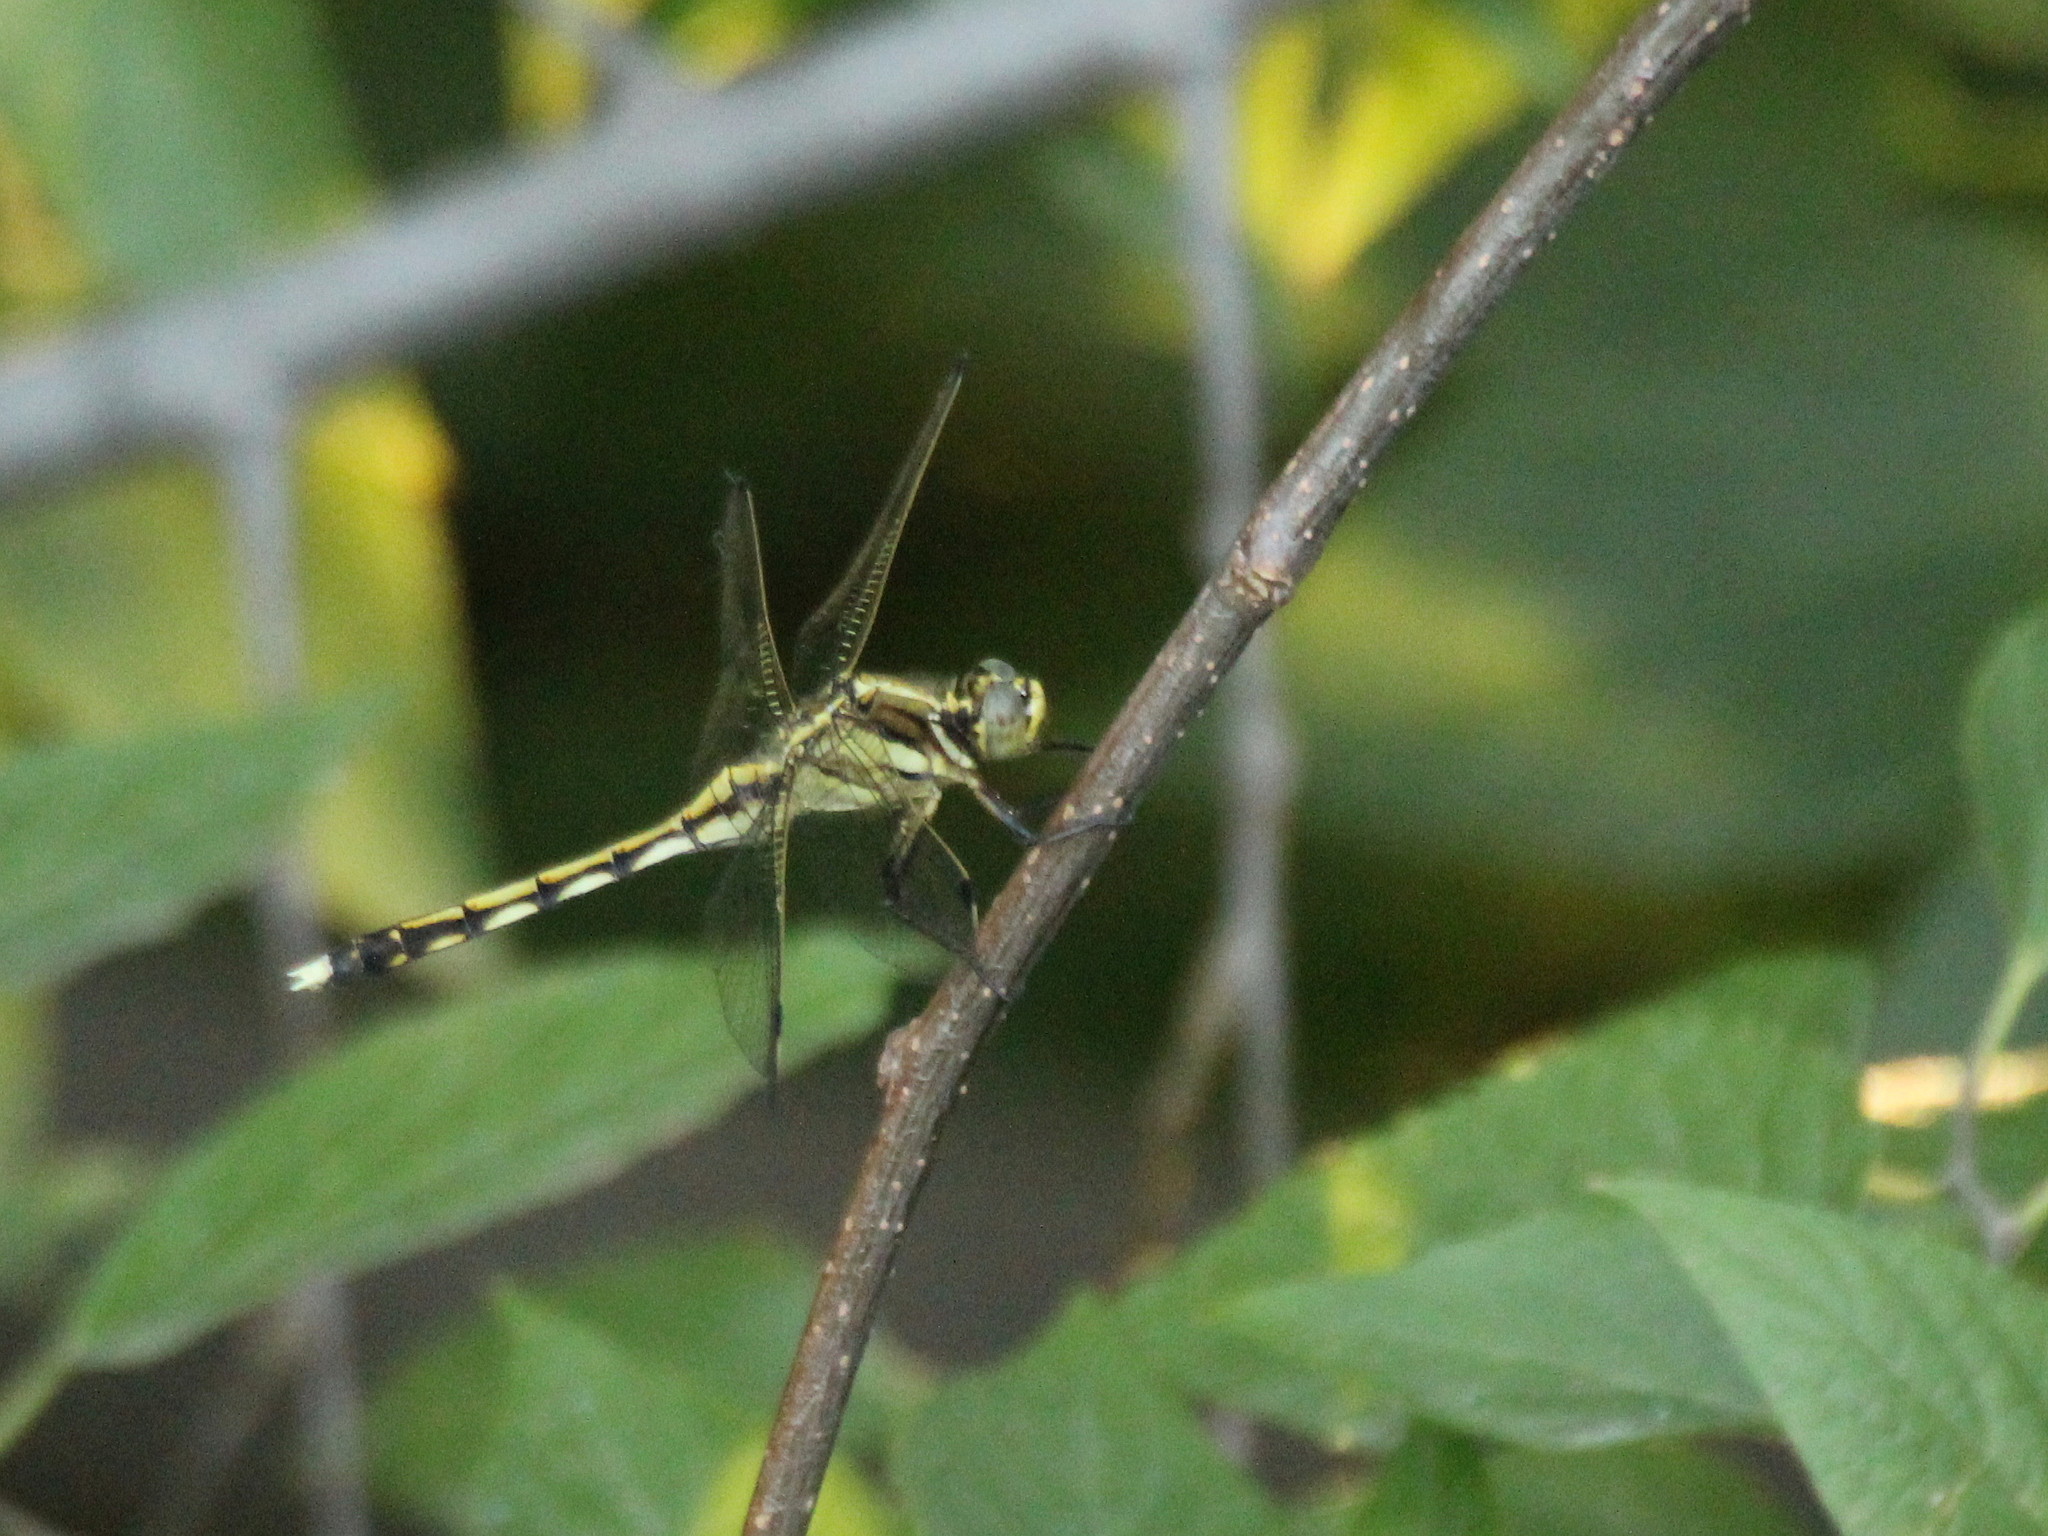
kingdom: Animalia
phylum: Arthropoda
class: Insecta
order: Odonata
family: Libellulidae
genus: Orthetrum
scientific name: Orthetrum albistylum
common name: White-tailed skimmer
